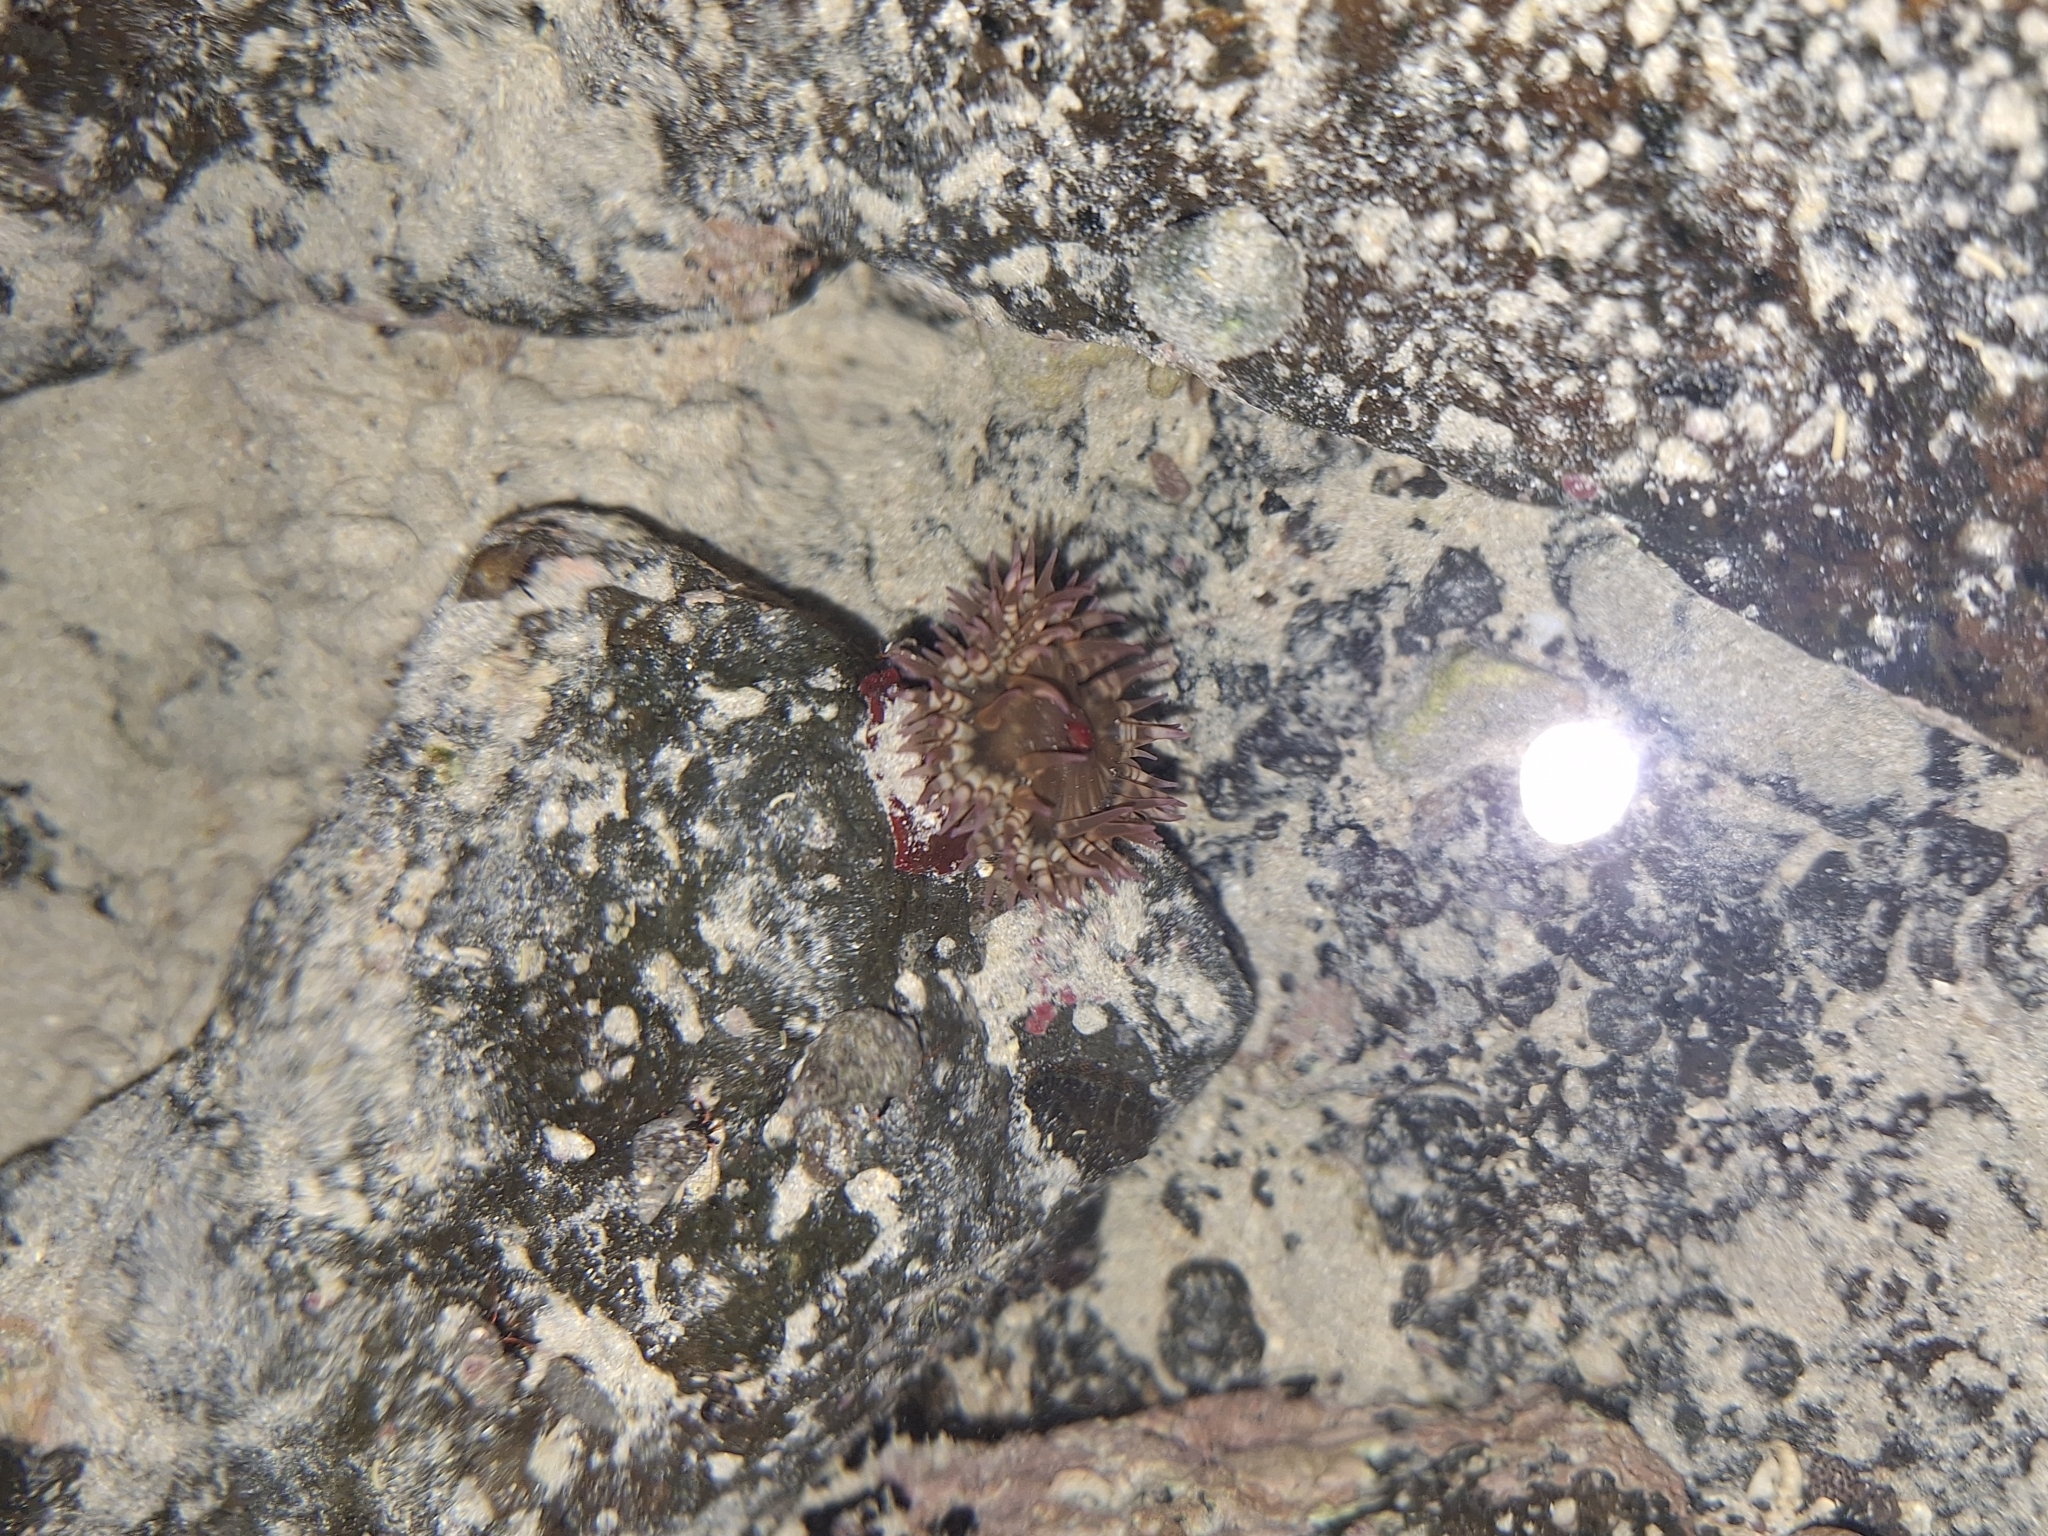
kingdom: Animalia
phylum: Cnidaria
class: Anthozoa
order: Actiniaria
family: Actiniidae
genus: Bunodosoma
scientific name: Bunodosoma grande
